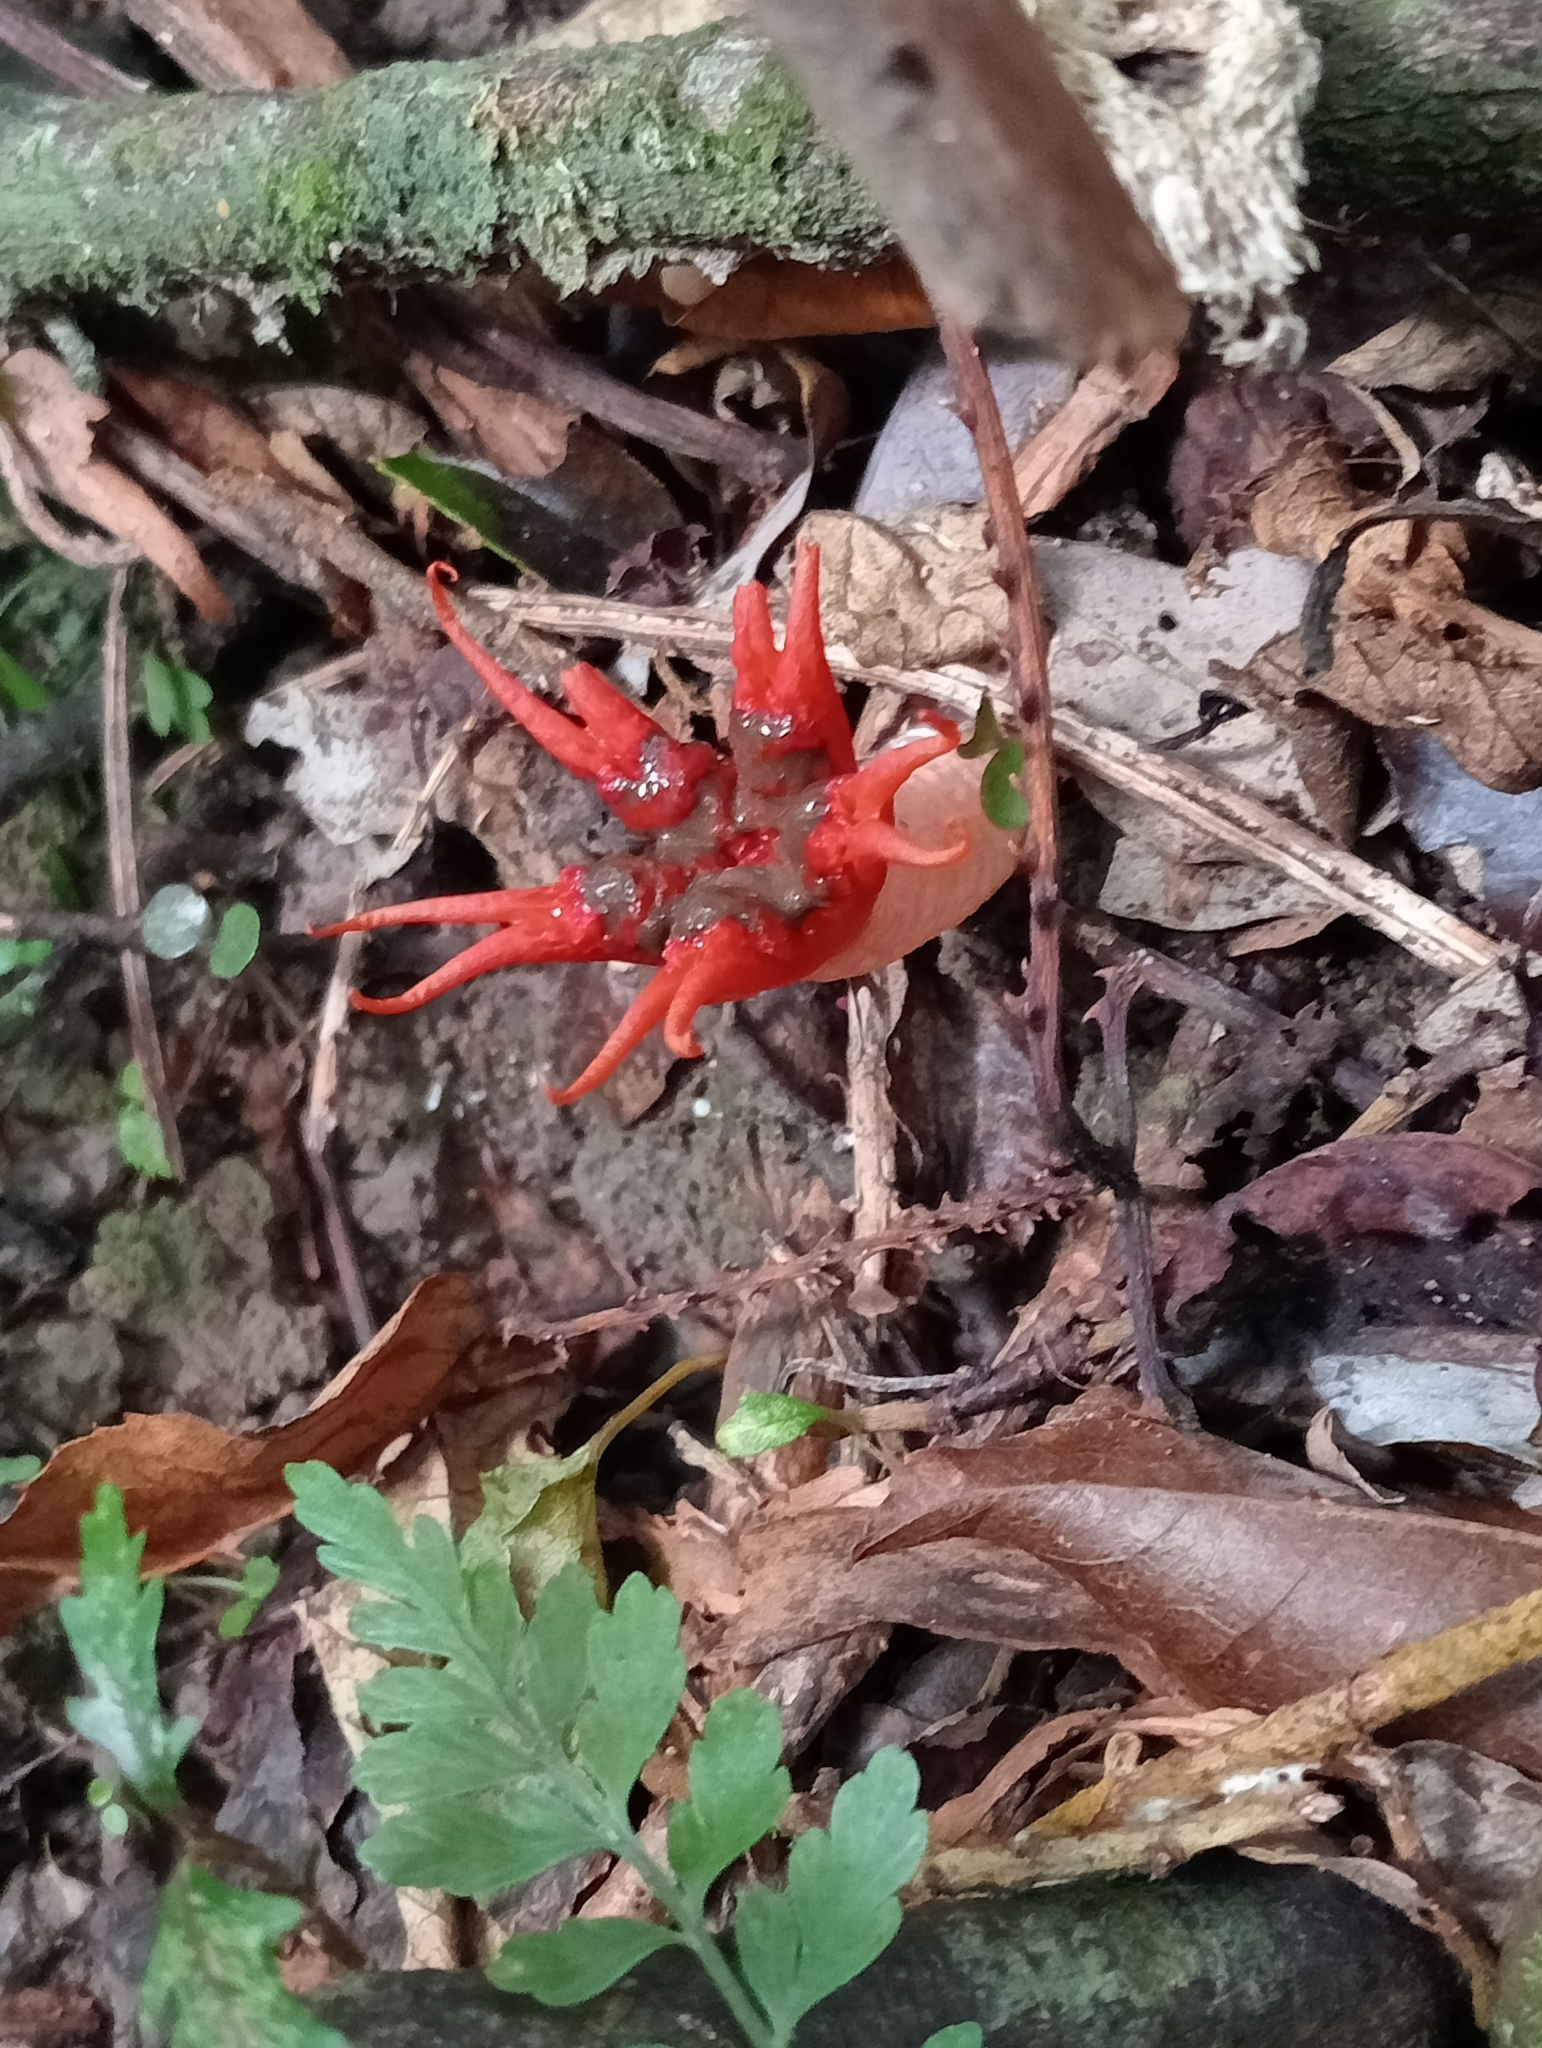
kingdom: Fungi
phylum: Basidiomycota
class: Agaricomycetes
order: Phallales
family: Phallaceae
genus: Aseroe
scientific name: Aseroe rubra
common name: Starfish fungus
